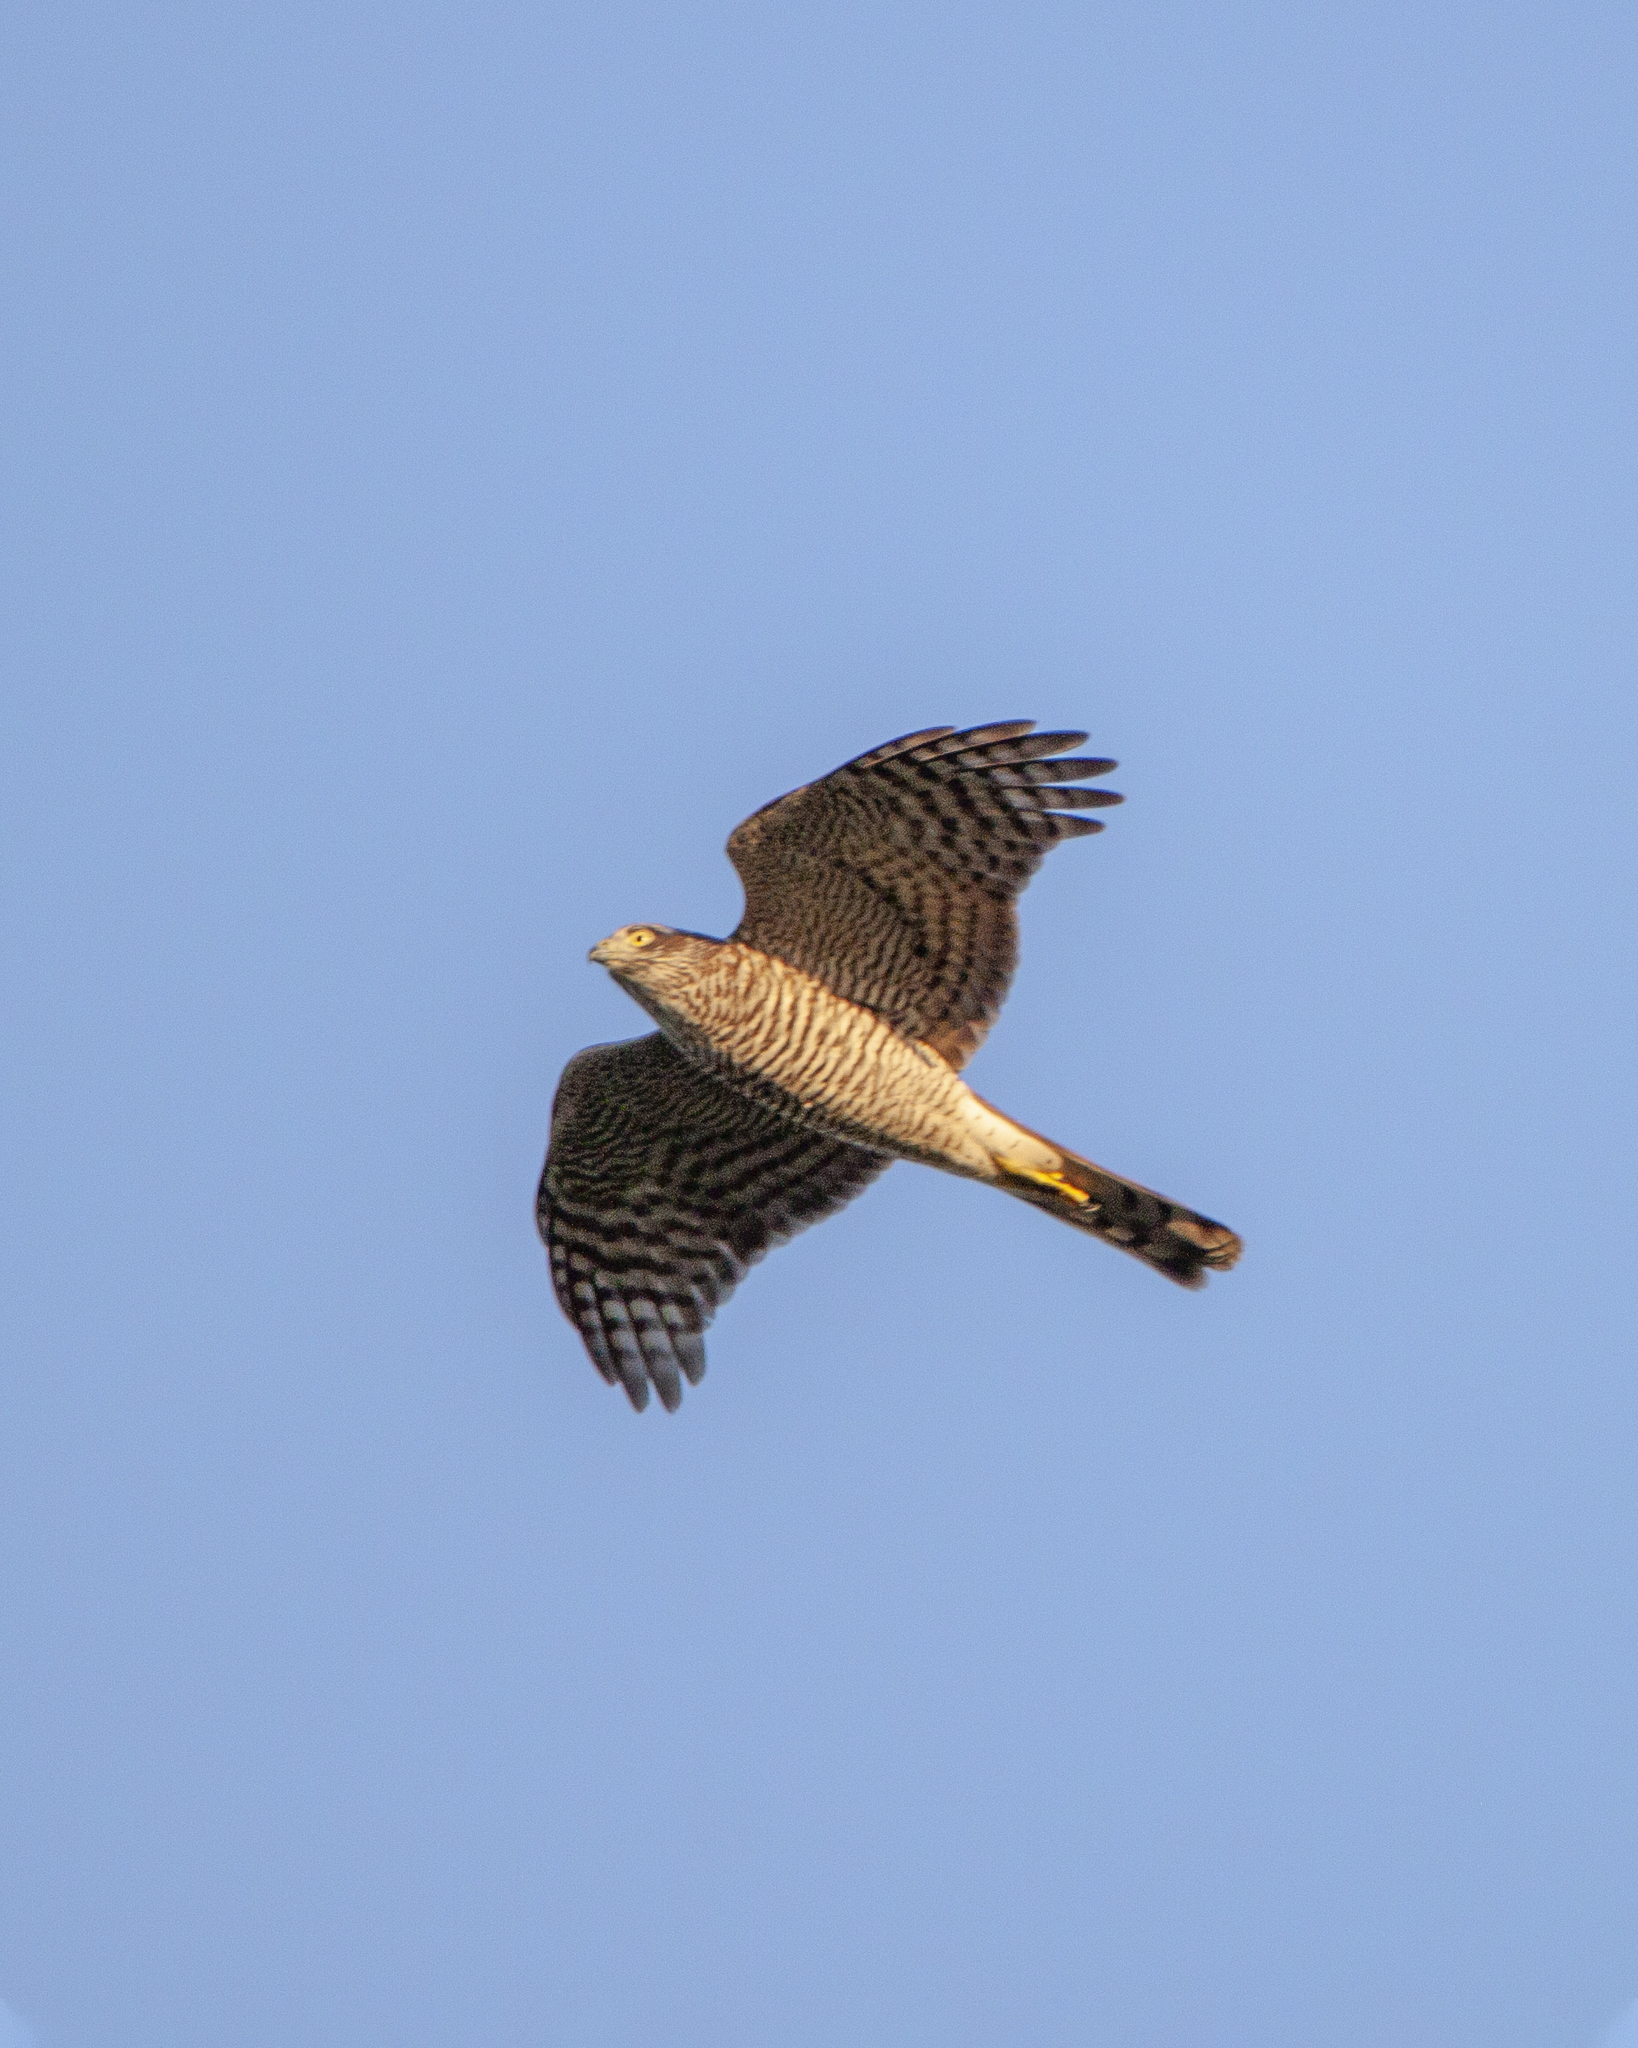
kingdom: Animalia
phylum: Chordata
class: Aves
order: Accipitriformes
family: Accipitridae
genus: Accipiter
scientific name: Accipiter nisus
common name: Eurasian sparrowhawk
